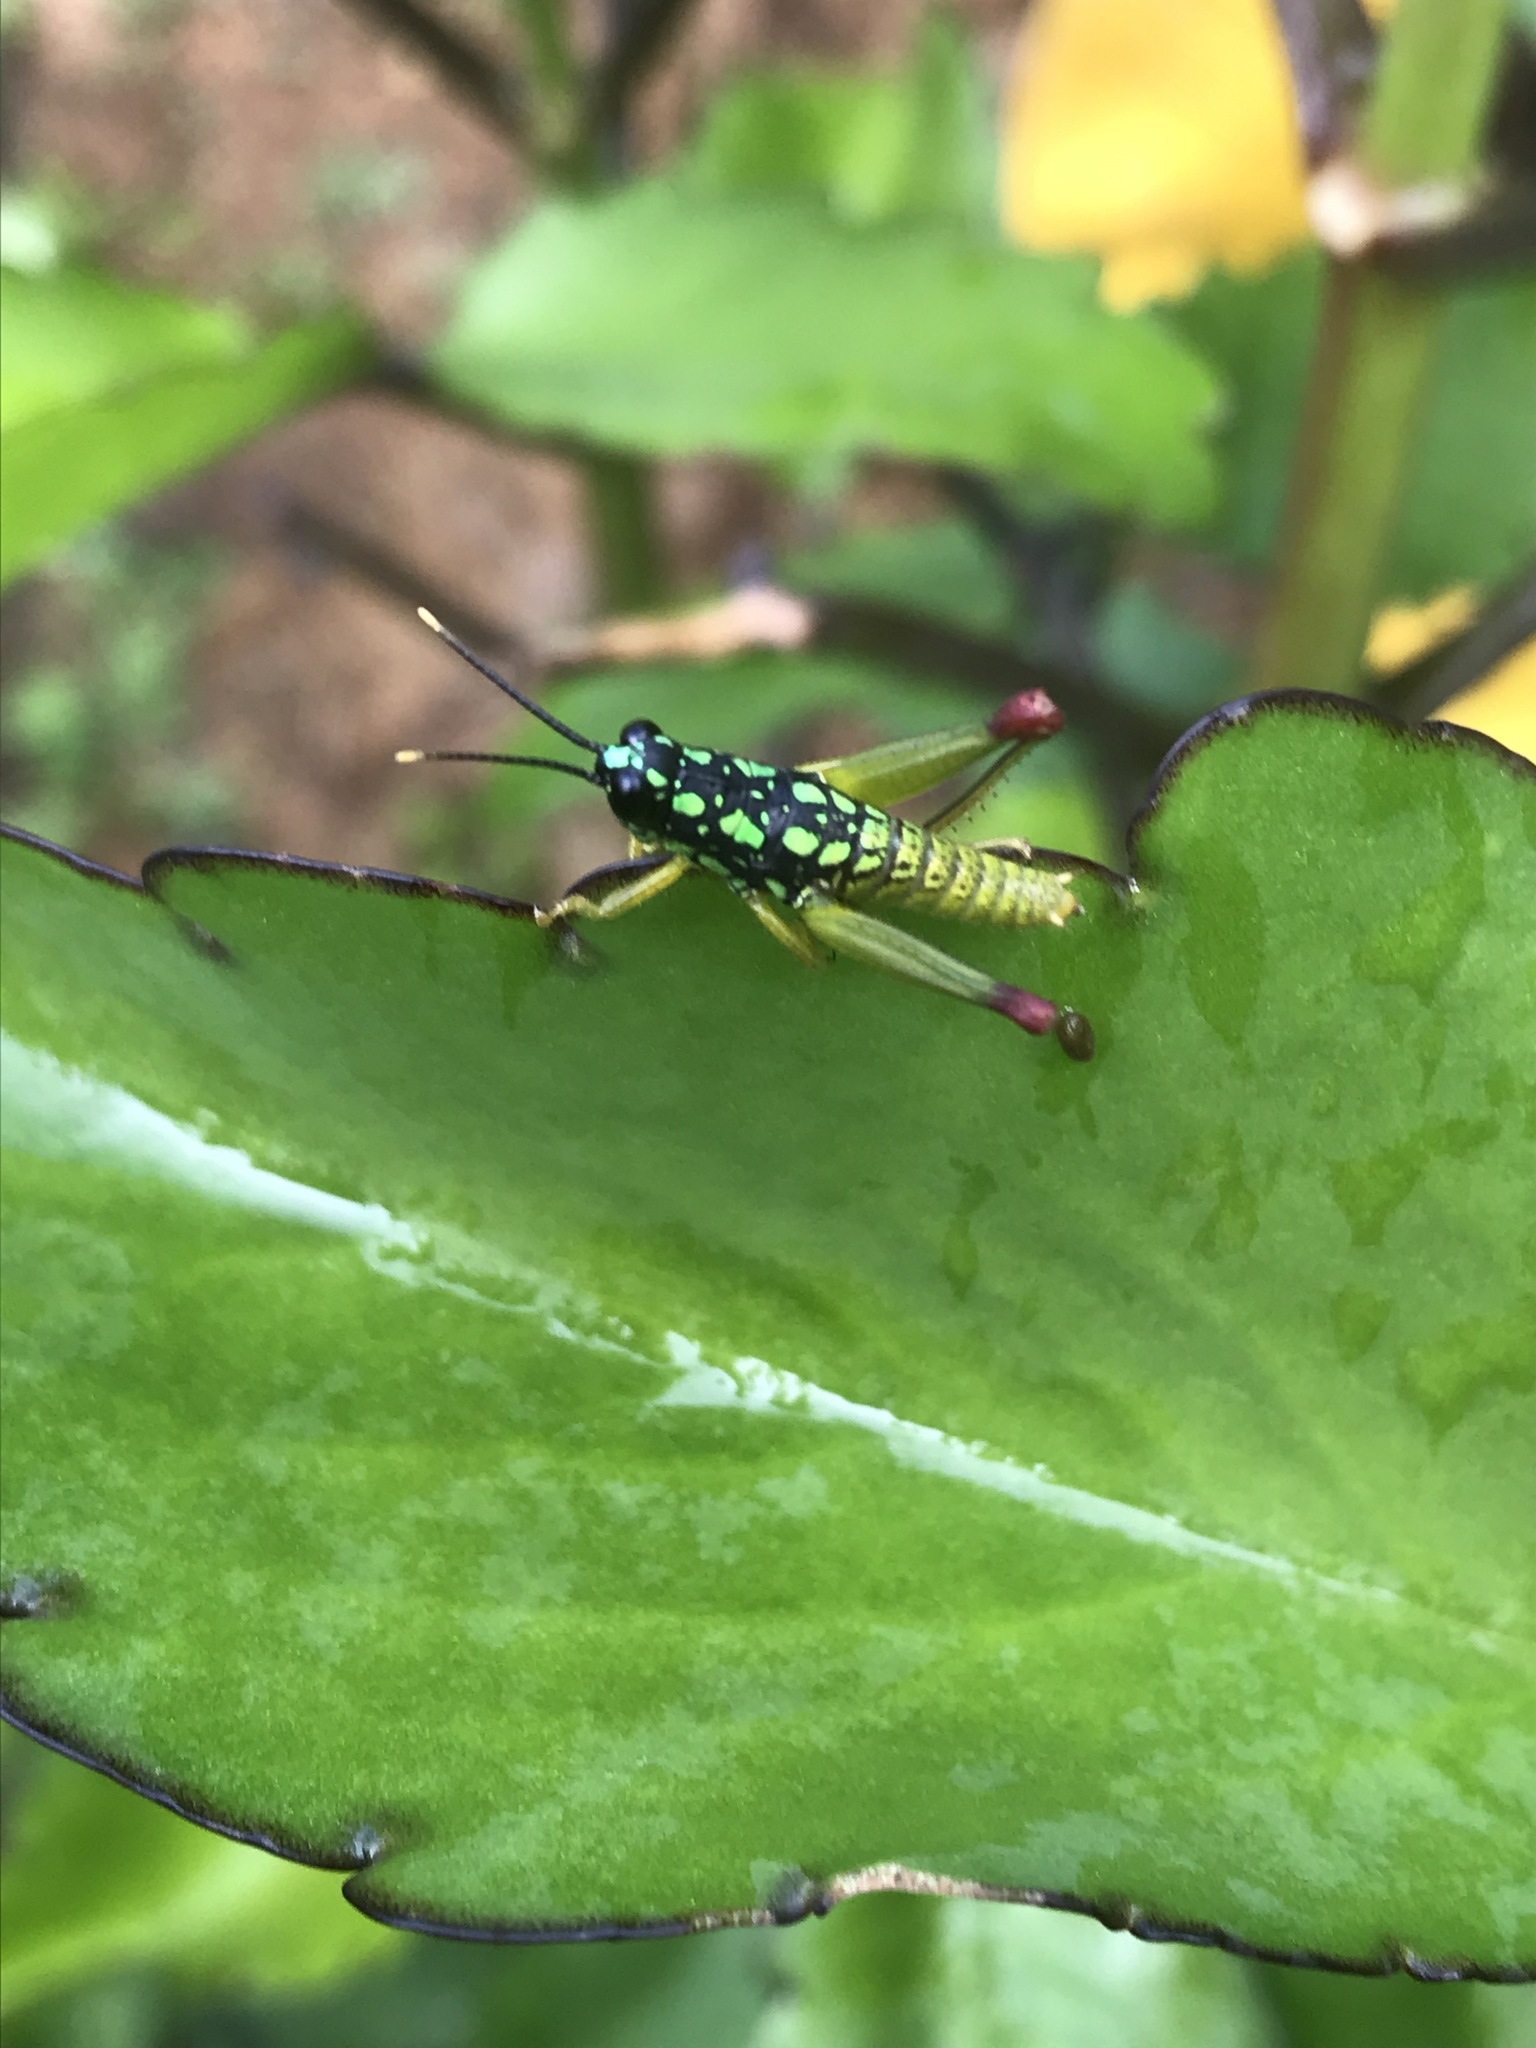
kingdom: Animalia
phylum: Arthropoda
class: Insecta
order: Orthoptera
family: Acrididae
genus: Galidacris
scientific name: Galidacris variabilis
